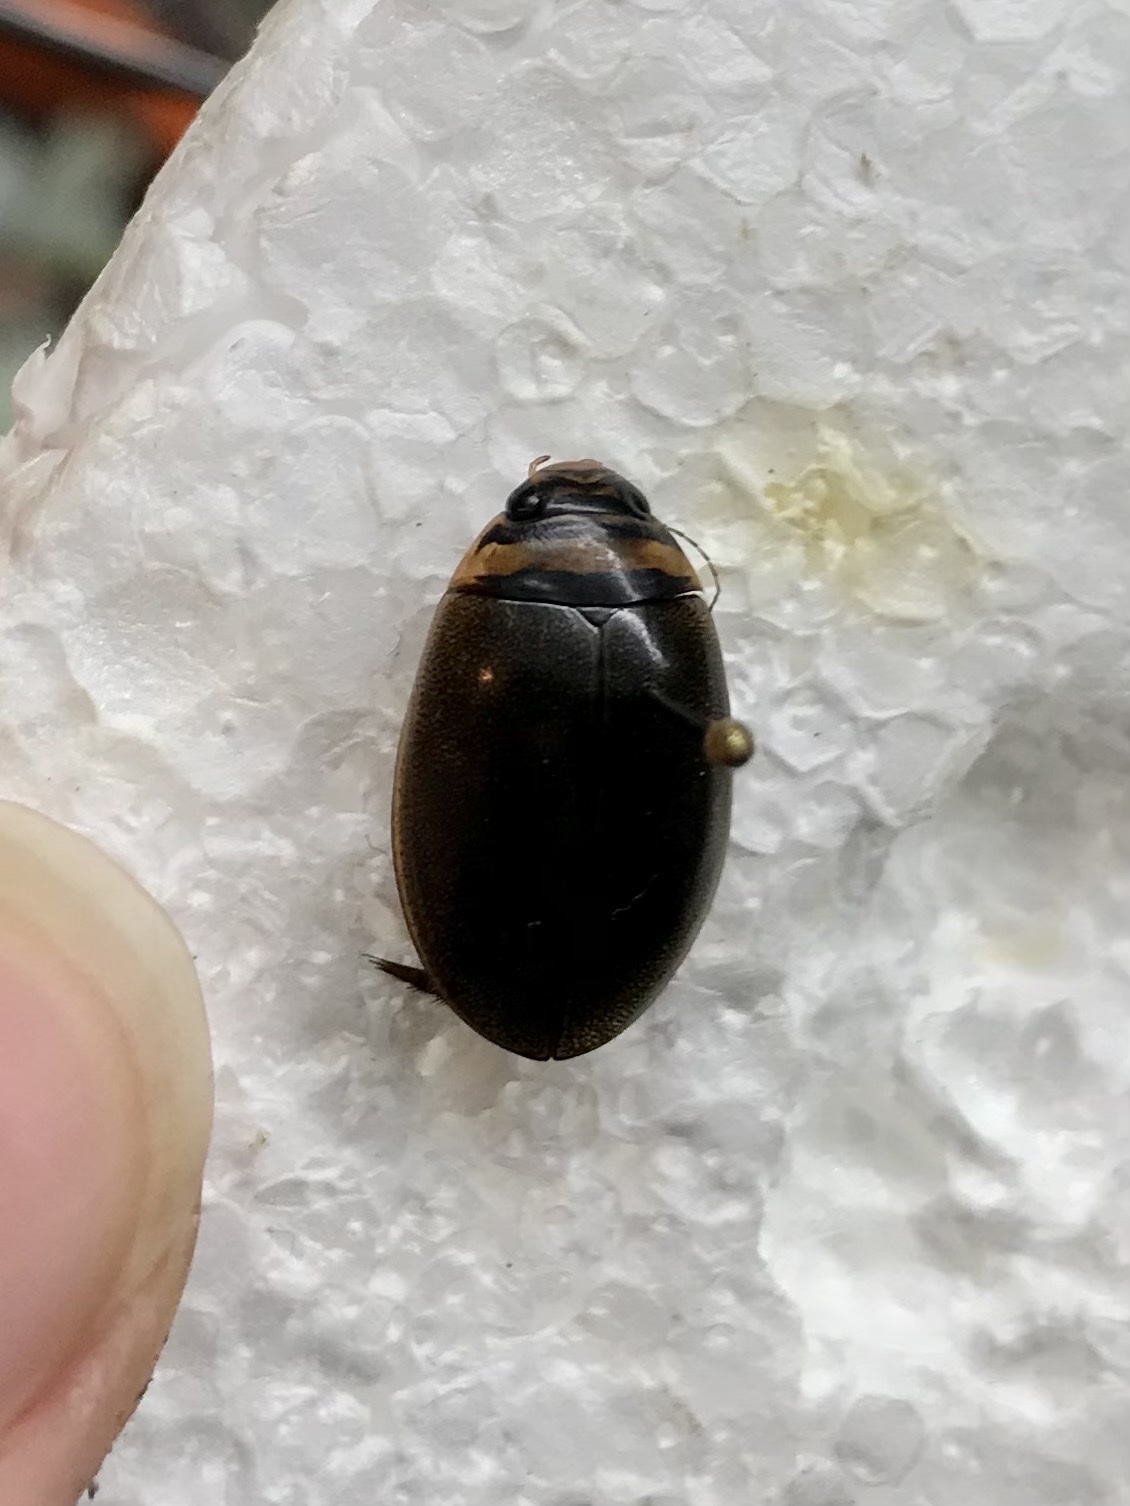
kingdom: Animalia
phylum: Arthropoda
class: Insecta
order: Coleoptera
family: Dytiscidae
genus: Graphoderus
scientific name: Graphoderus perplexus
